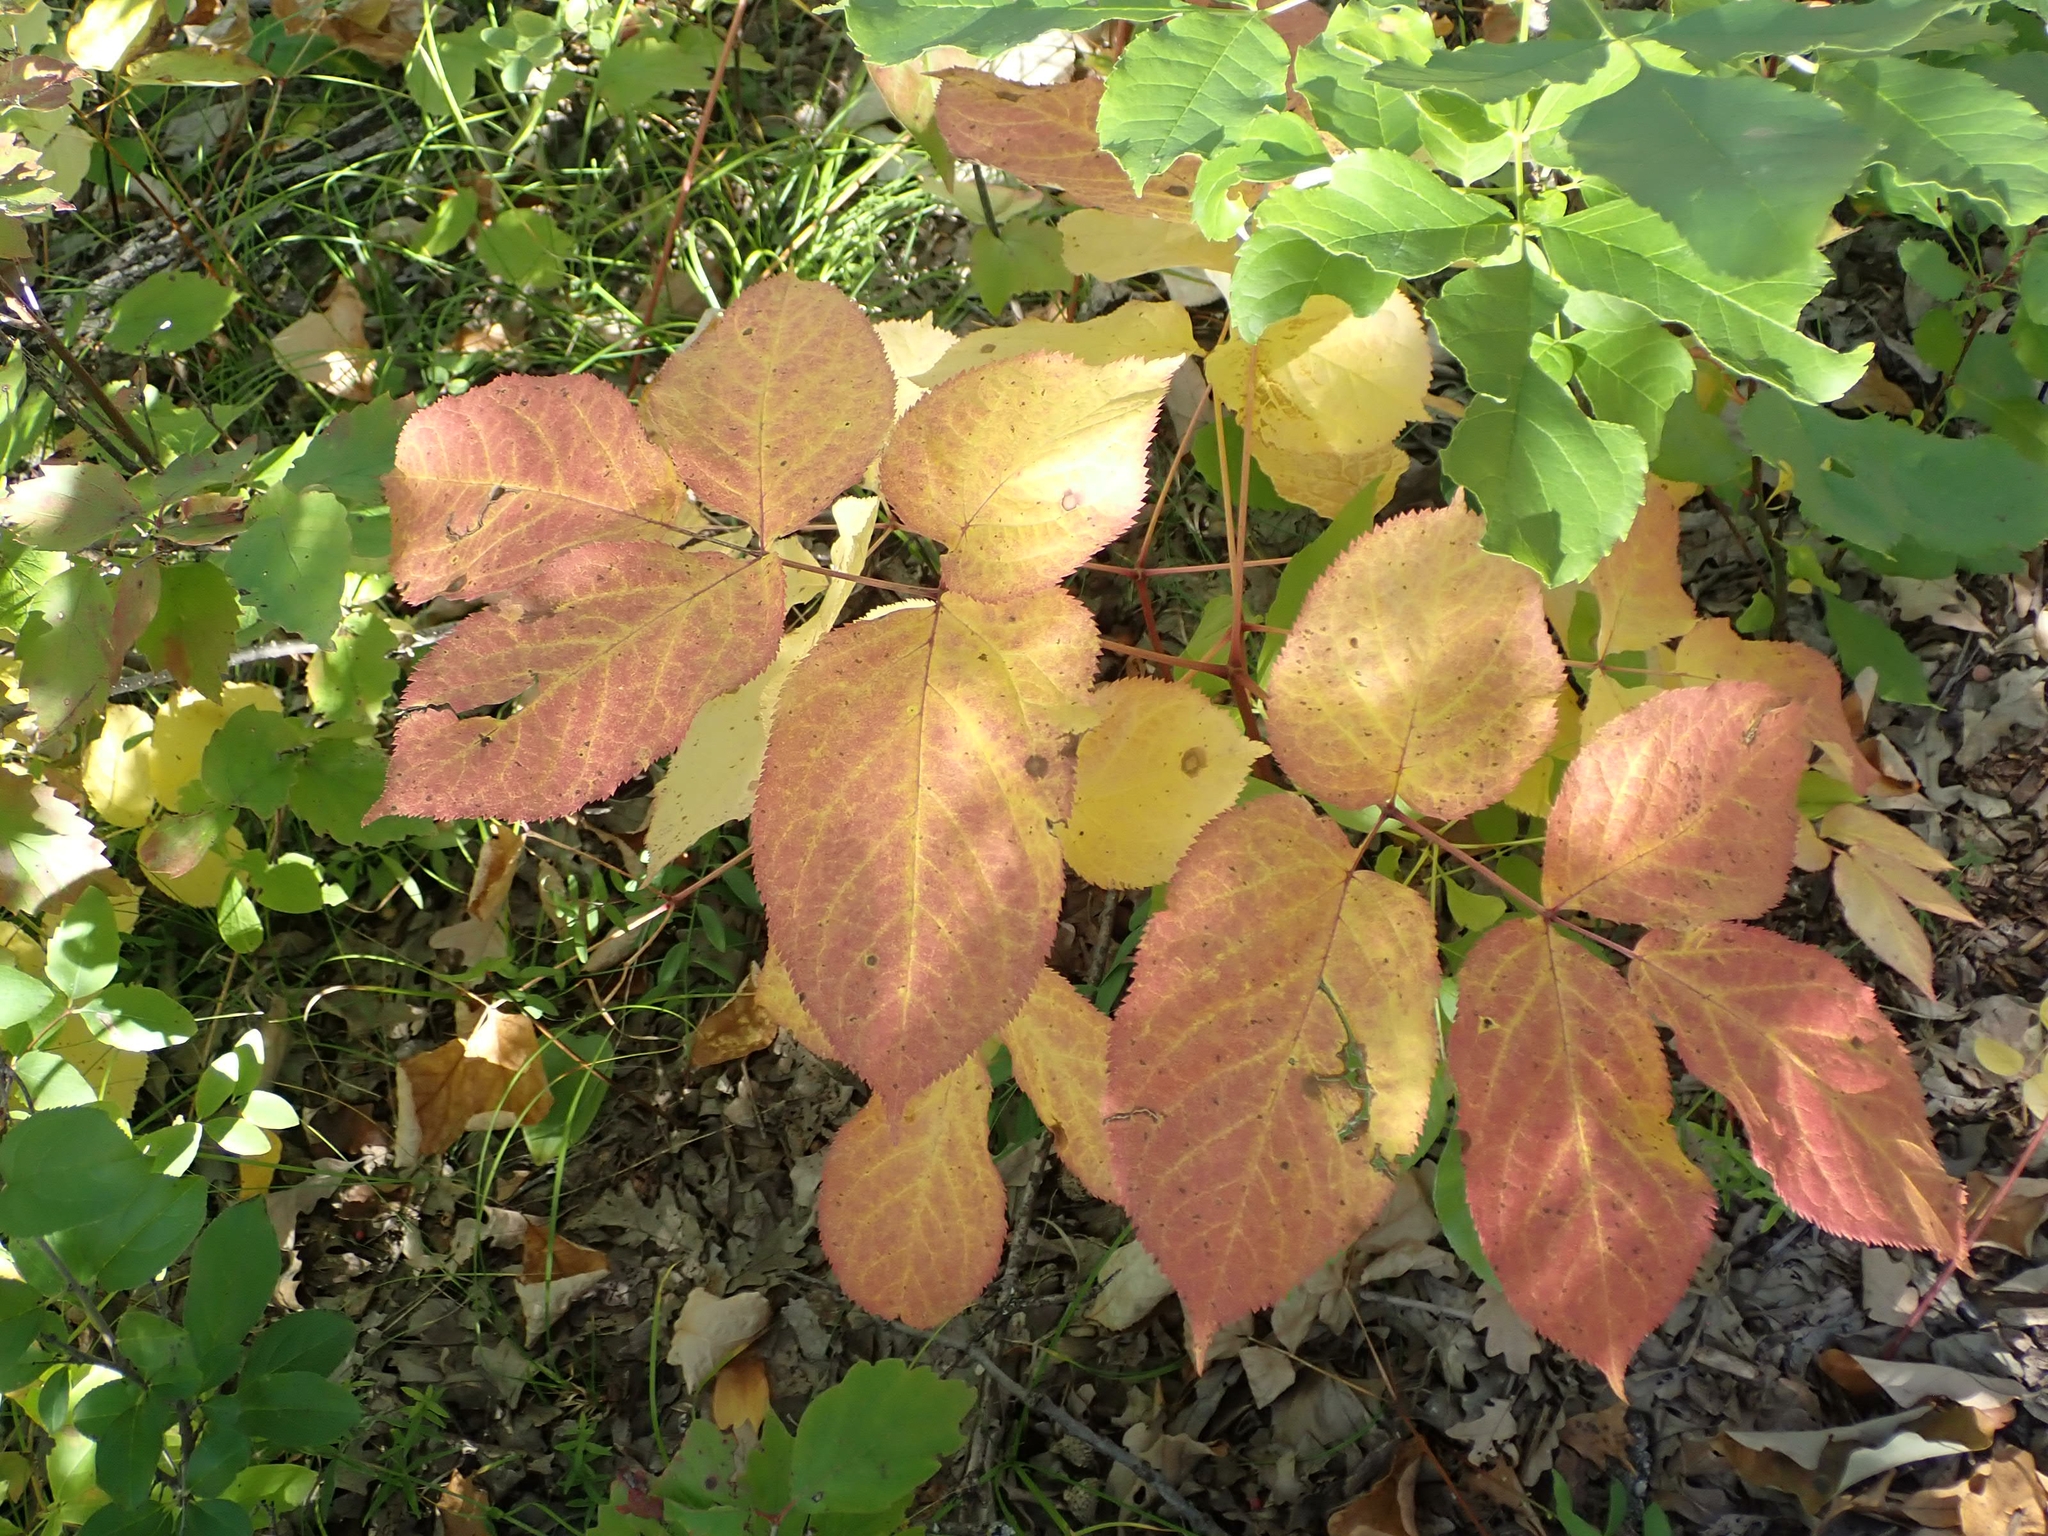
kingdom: Plantae
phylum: Tracheophyta
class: Magnoliopsida
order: Apiales
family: Araliaceae
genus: Aralia
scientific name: Aralia nudicaulis
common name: Wild sarsaparilla
